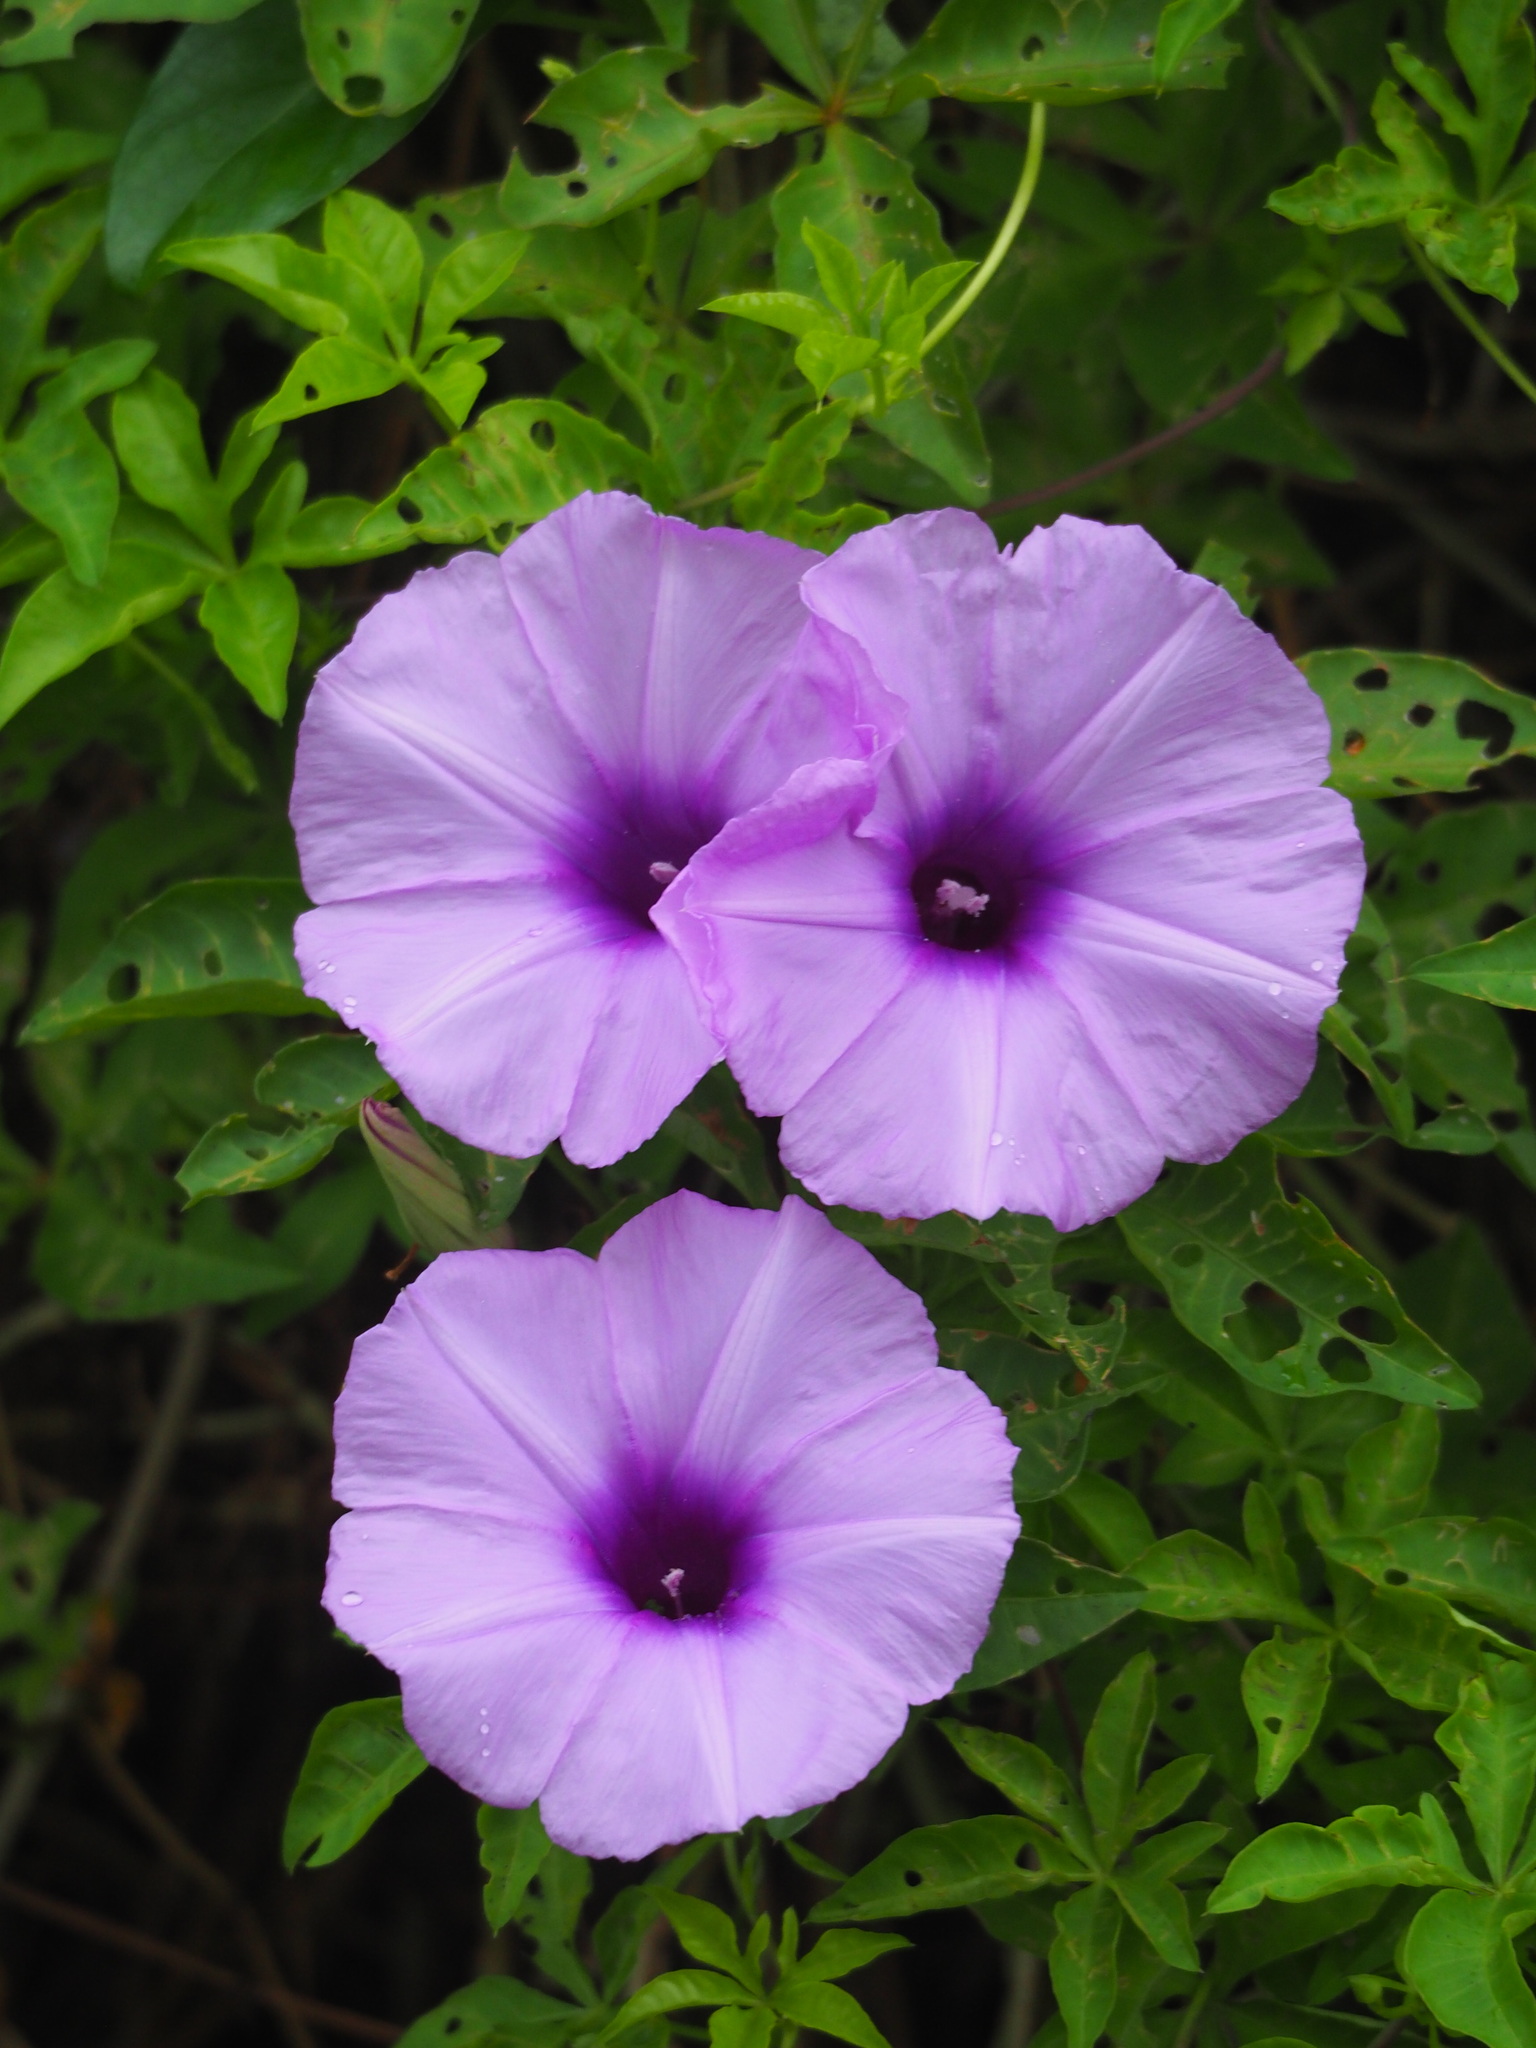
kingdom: Plantae
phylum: Tracheophyta
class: Magnoliopsida
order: Solanales
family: Convolvulaceae
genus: Ipomoea
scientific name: Ipomoea cairica
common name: Mile a minute vine
